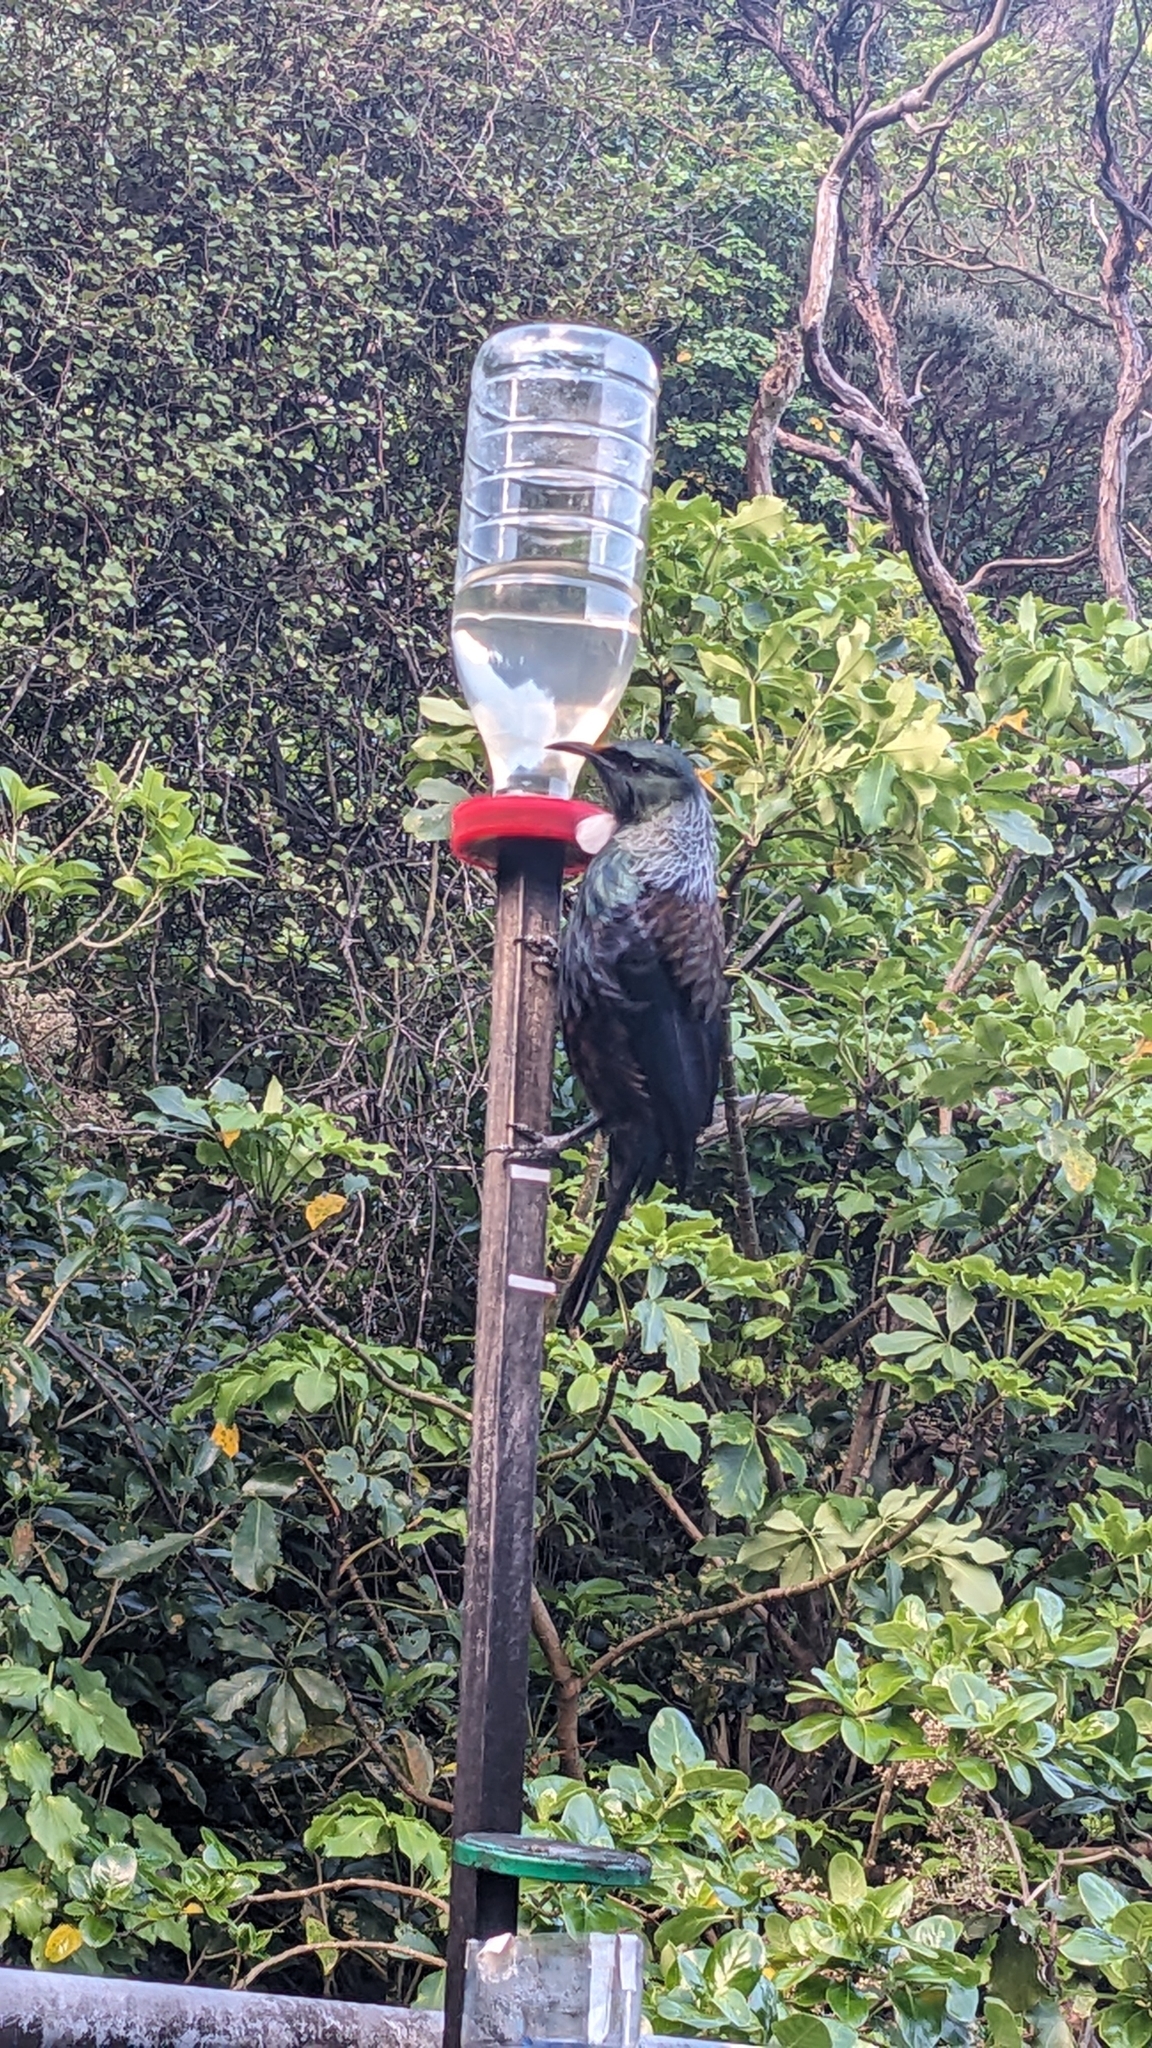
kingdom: Animalia
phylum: Chordata
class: Aves
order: Passeriformes
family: Meliphagidae
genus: Prosthemadera
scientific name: Prosthemadera novaeseelandiae
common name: Tui
